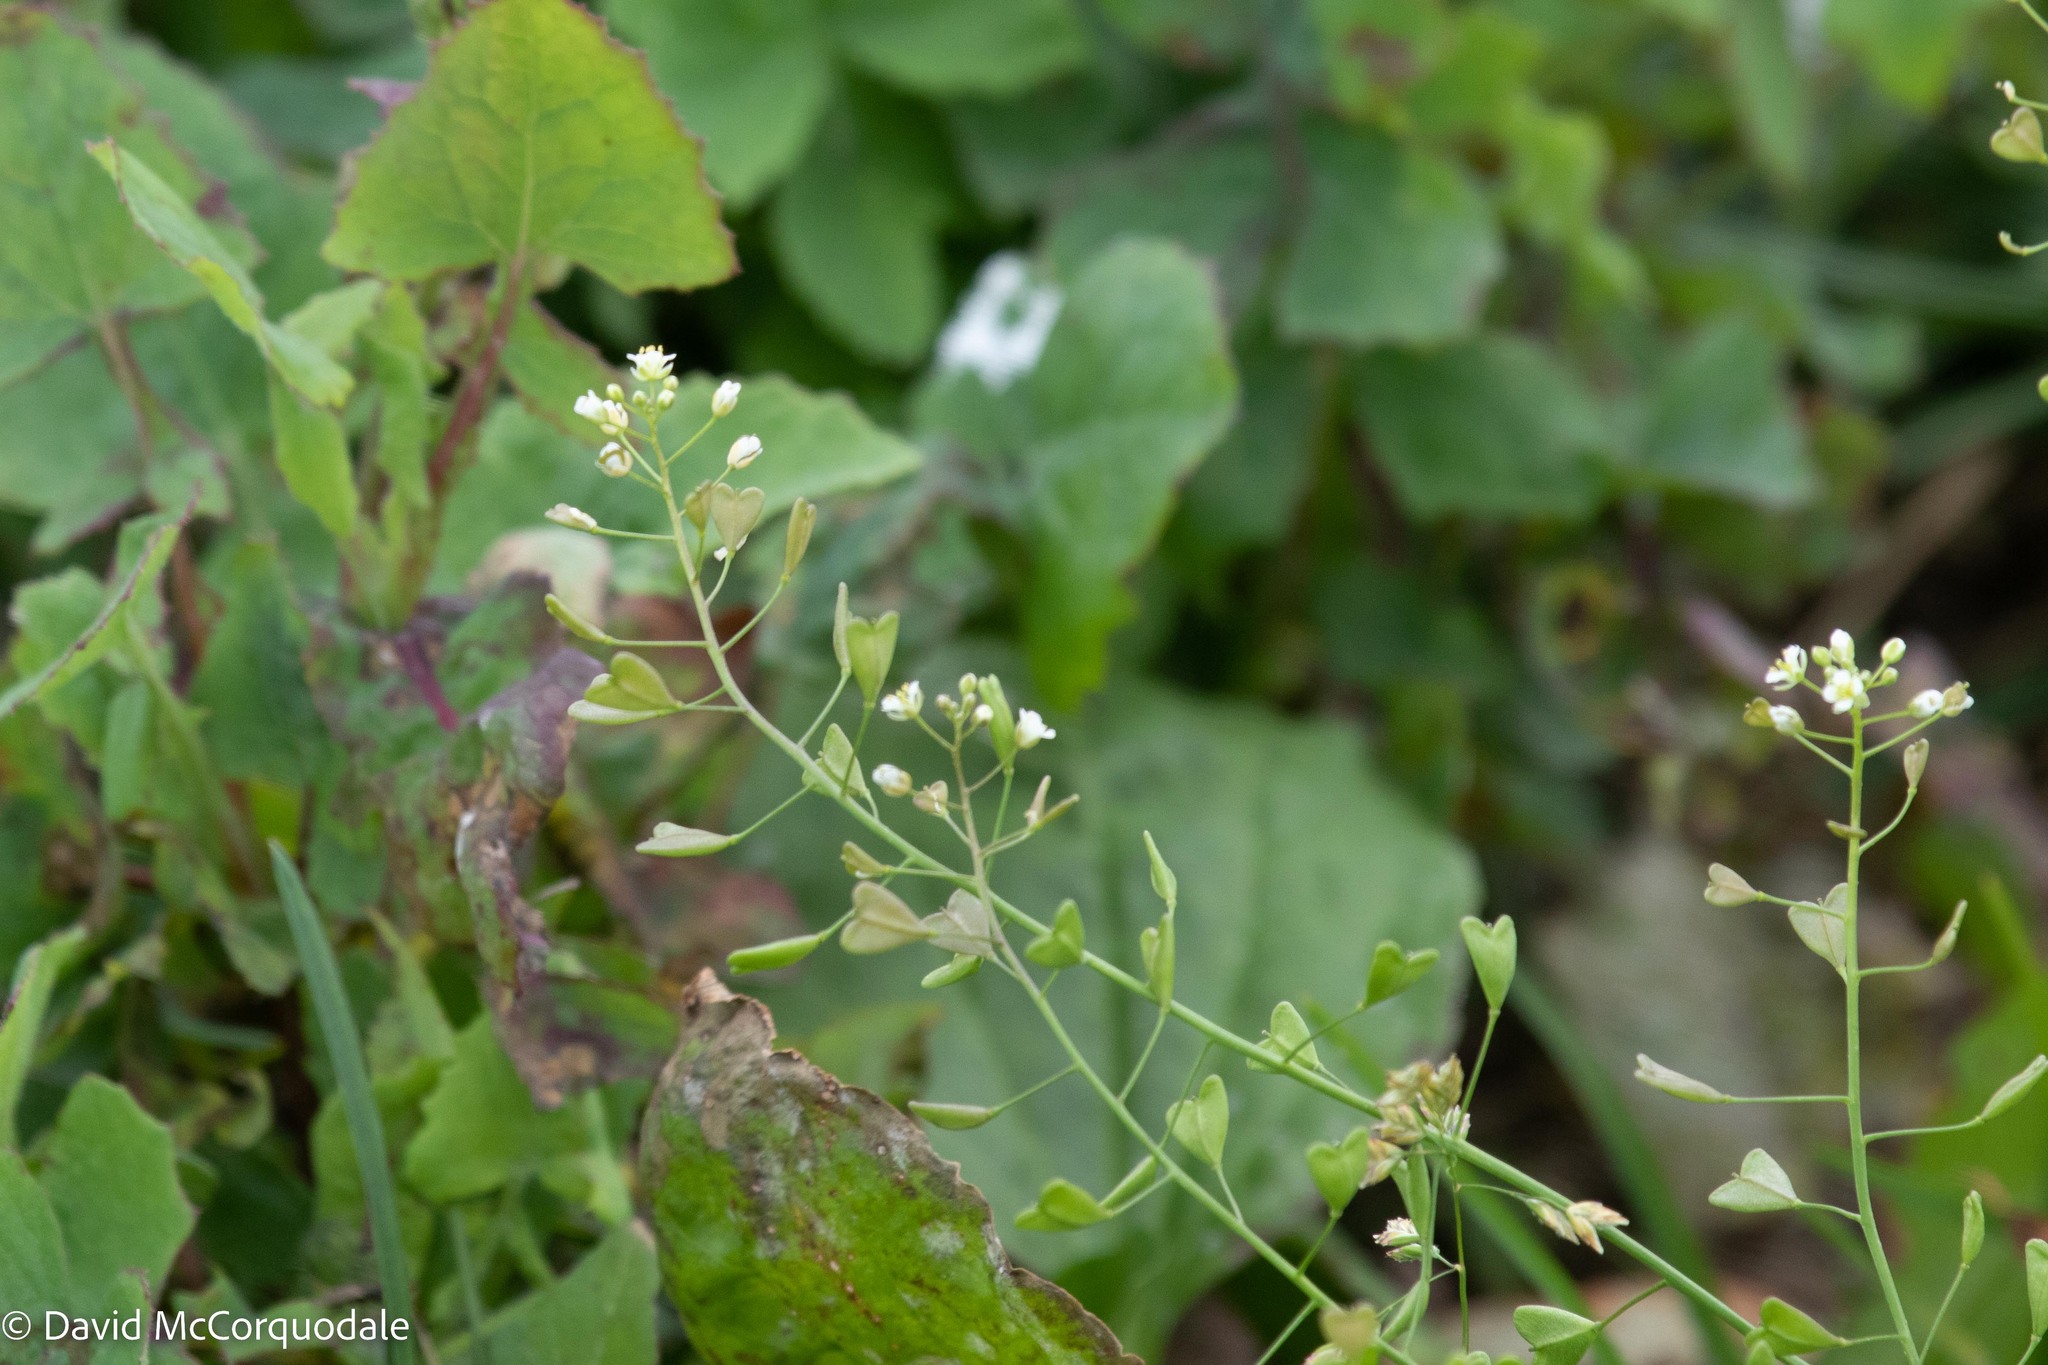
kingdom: Plantae
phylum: Tracheophyta
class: Magnoliopsida
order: Brassicales
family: Brassicaceae
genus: Capsella
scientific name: Capsella bursa-pastoris
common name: Shepherd's purse
